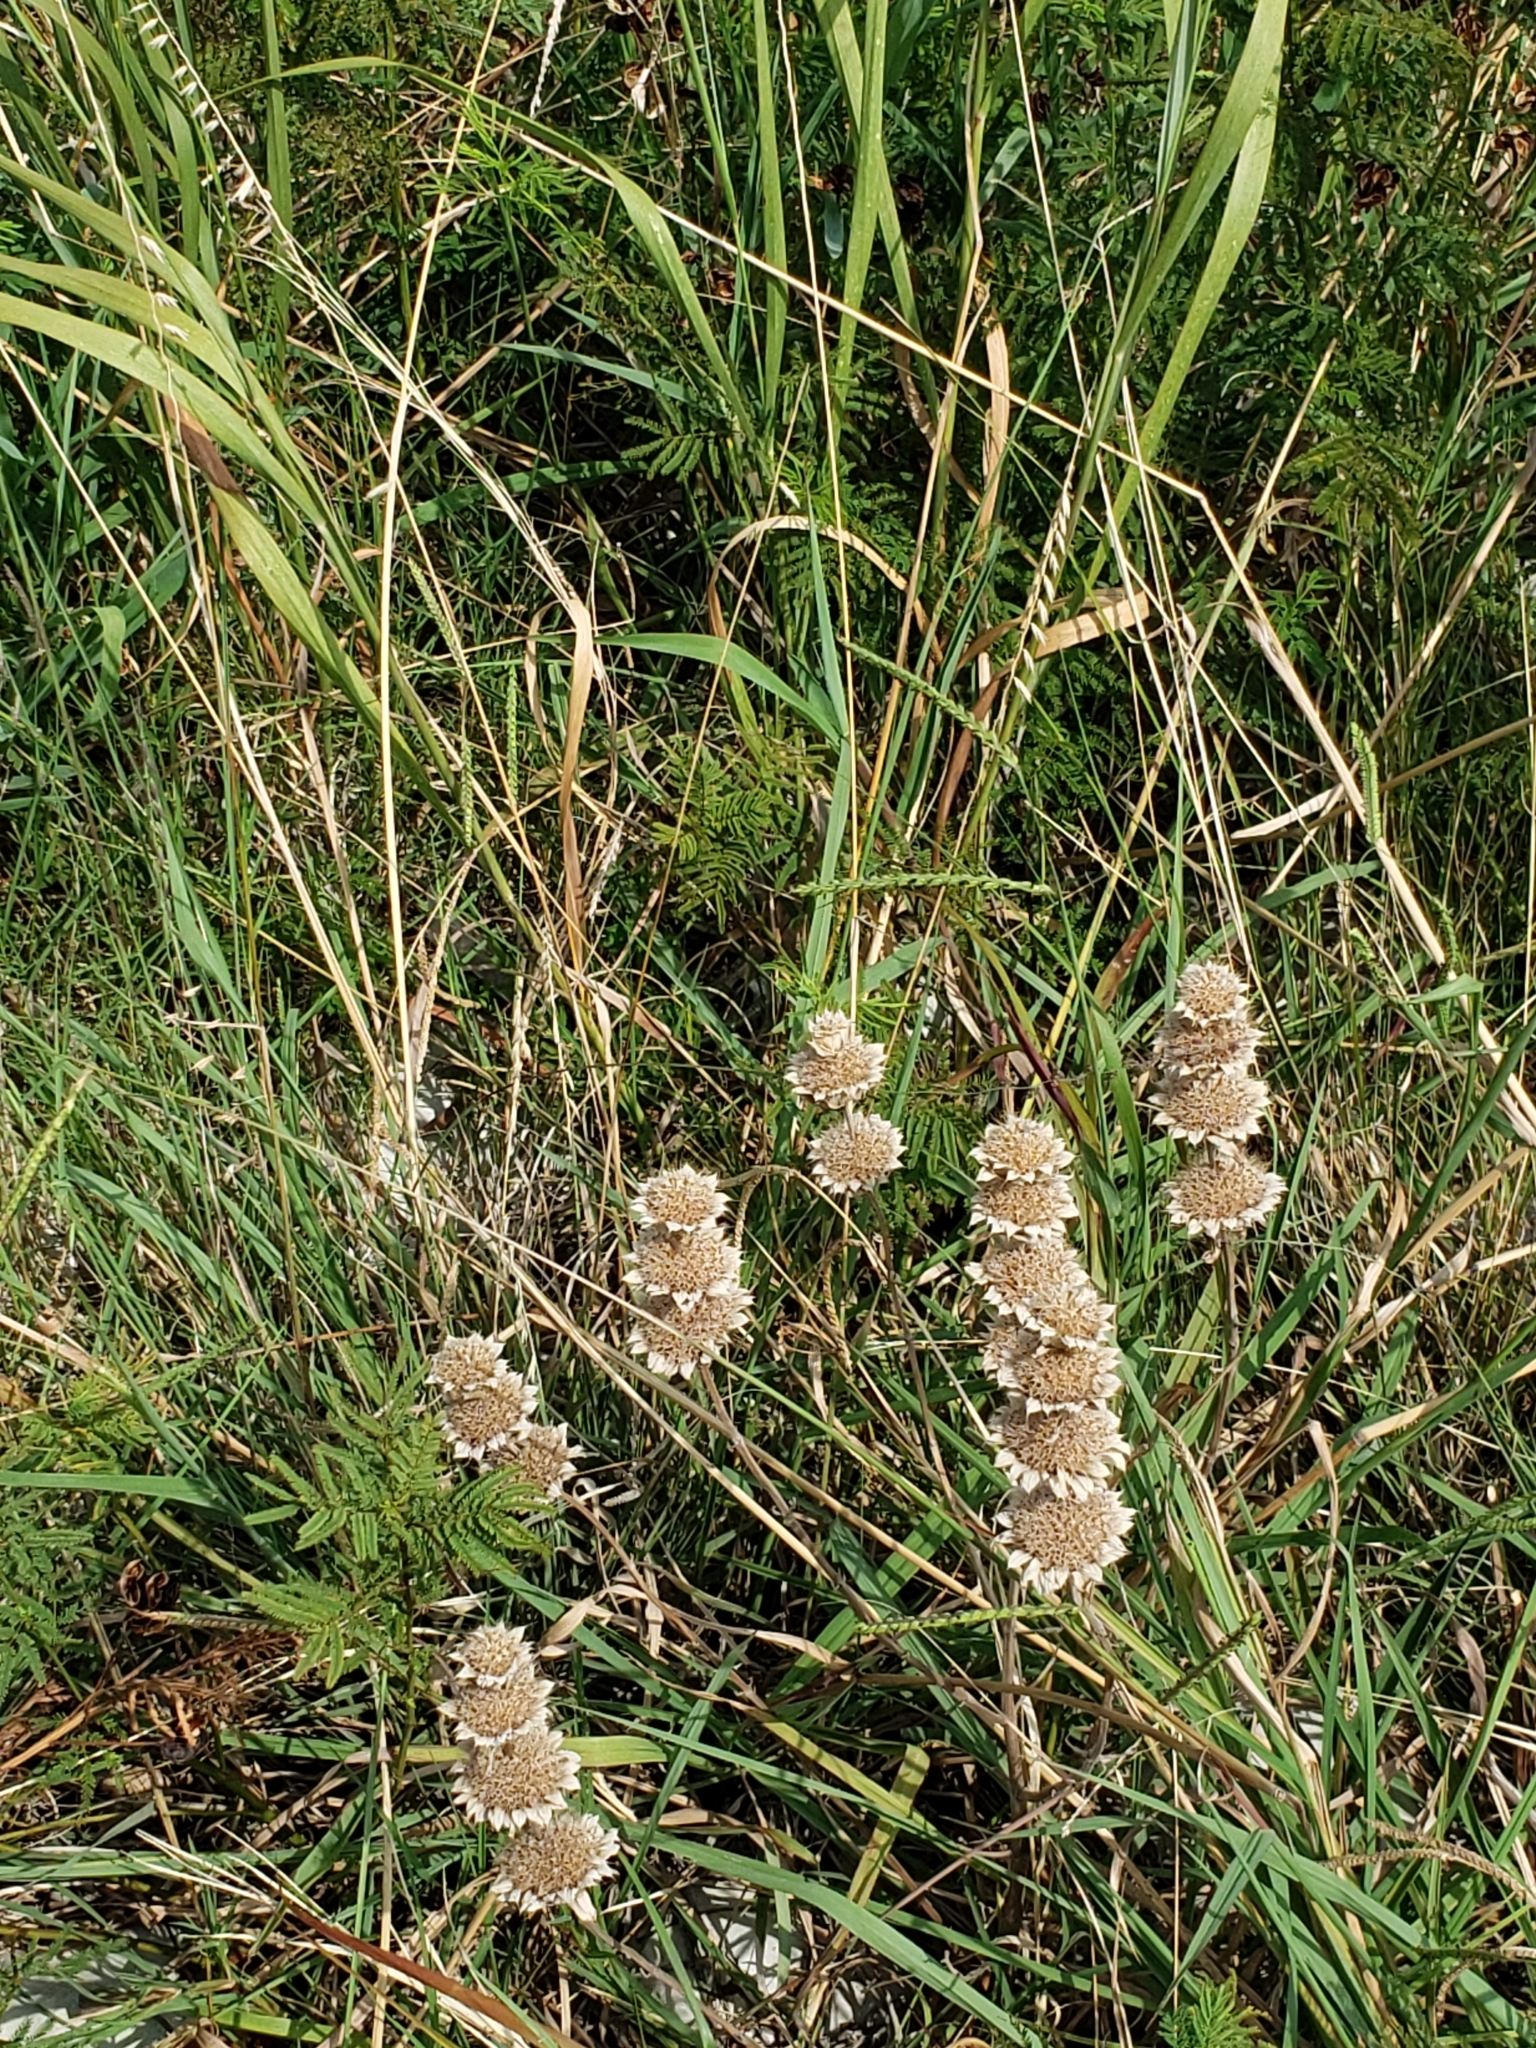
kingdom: Plantae
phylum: Tracheophyta
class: Magnoliopsida
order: Lamiales
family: Lamiaceae
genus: Monarda
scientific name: Monarda citriodora
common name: Lemon beebalm
